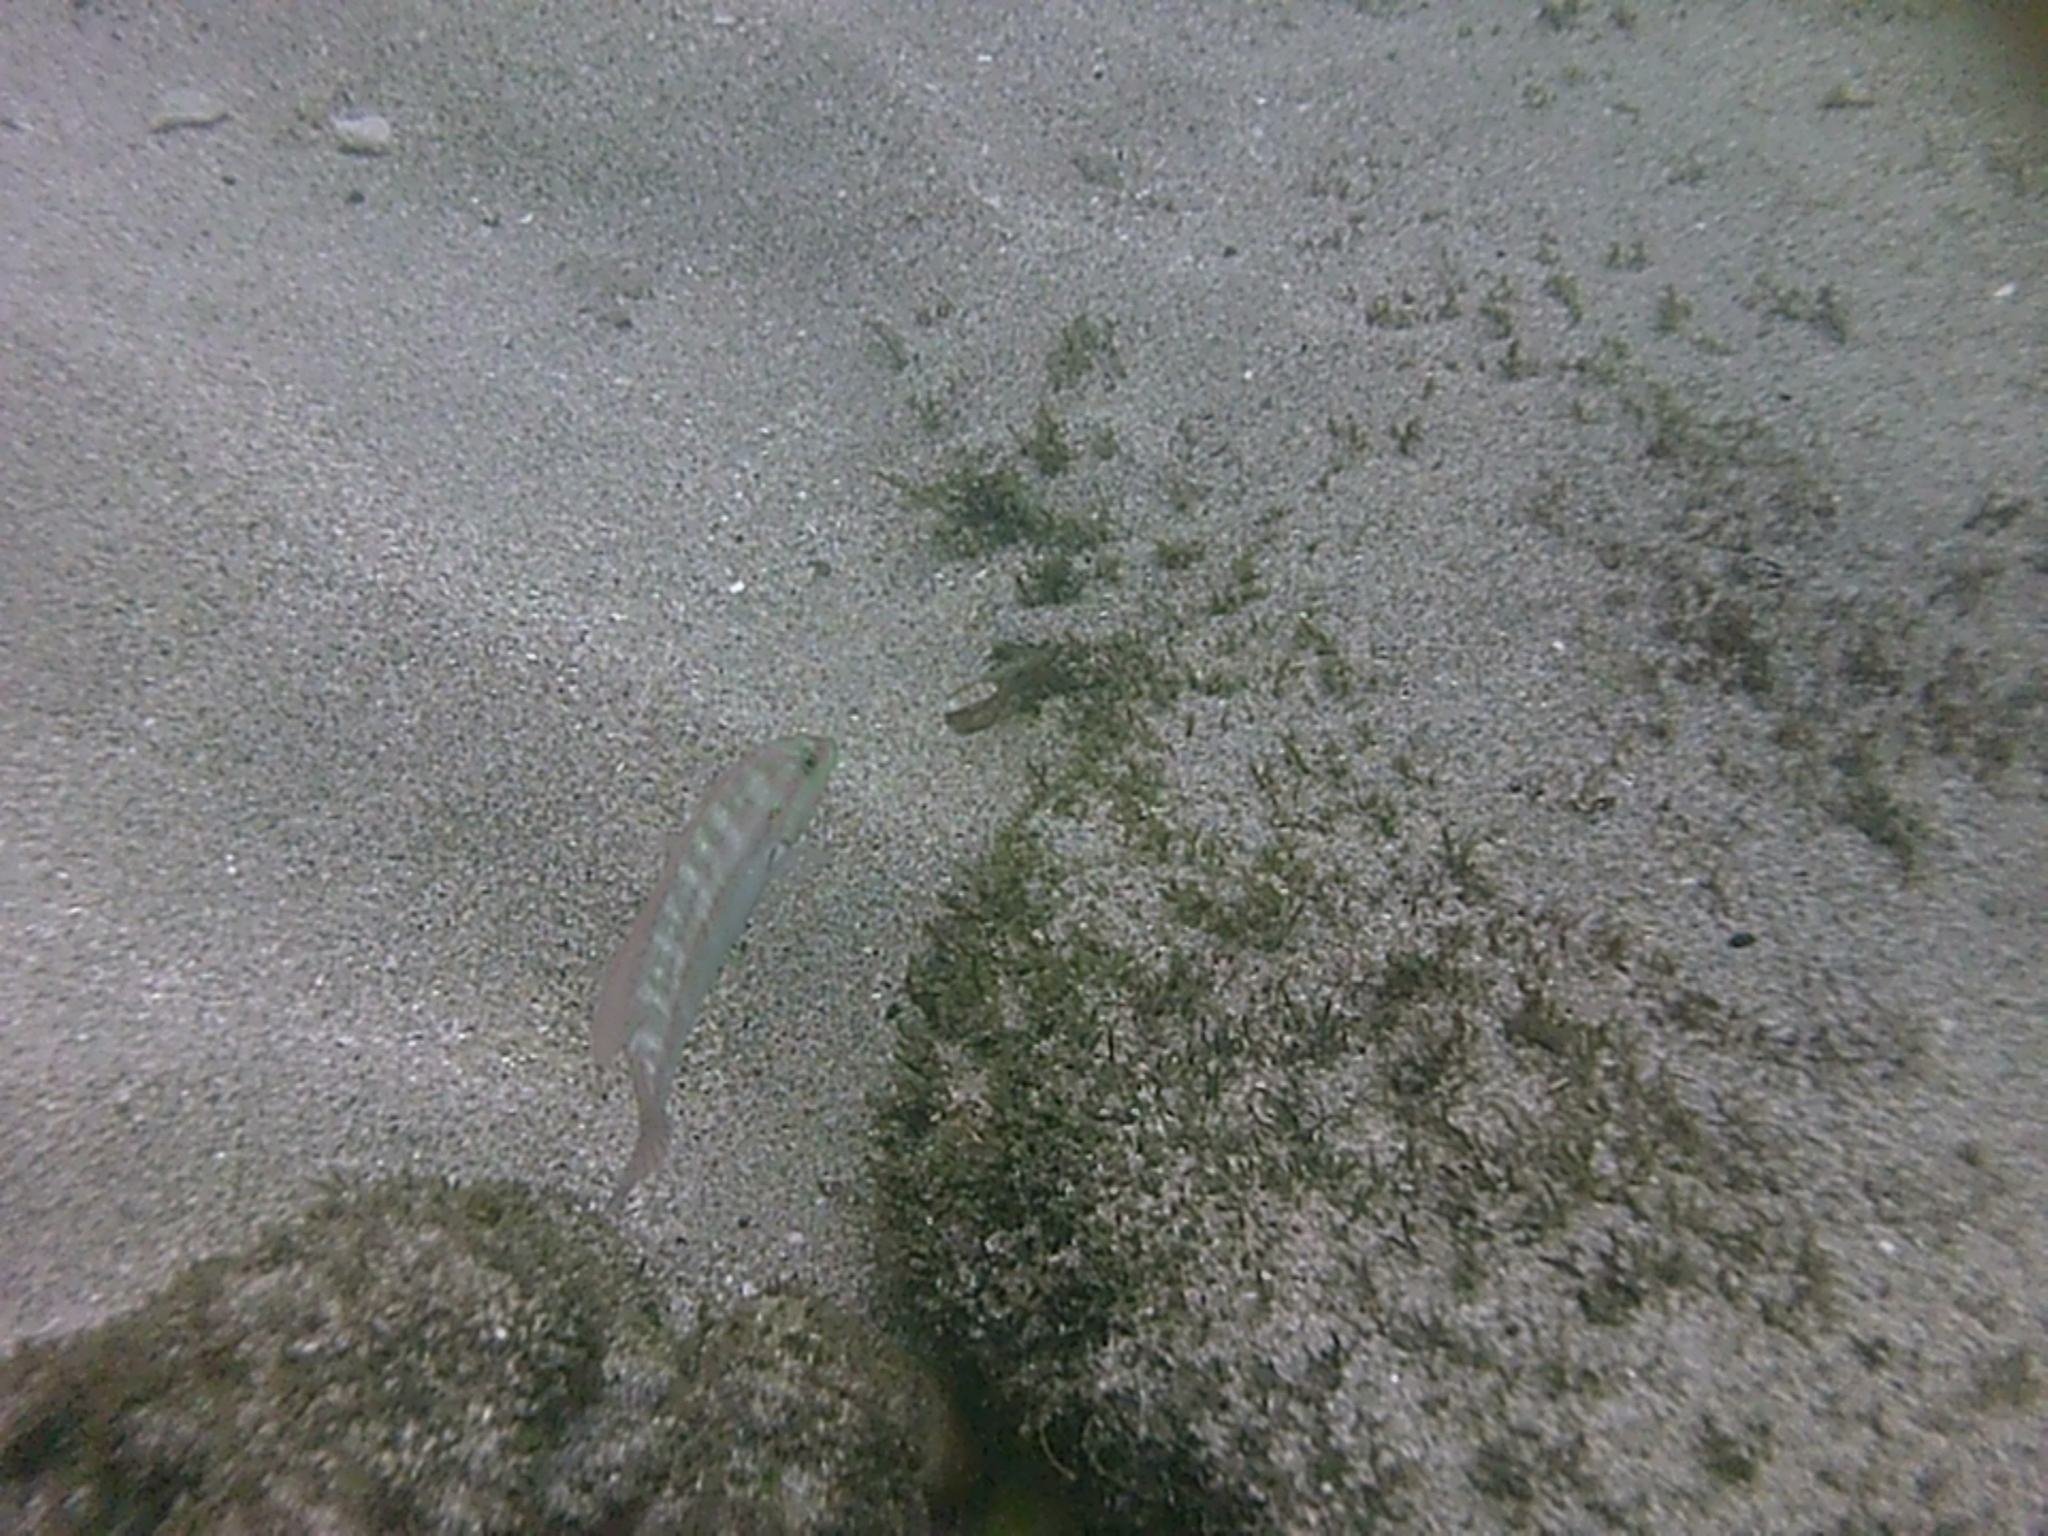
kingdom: Animalia
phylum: Chordata
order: Perciformes
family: Labridae
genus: Halichoeres
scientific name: Halichoeres bivittatus
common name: Slippery dick
